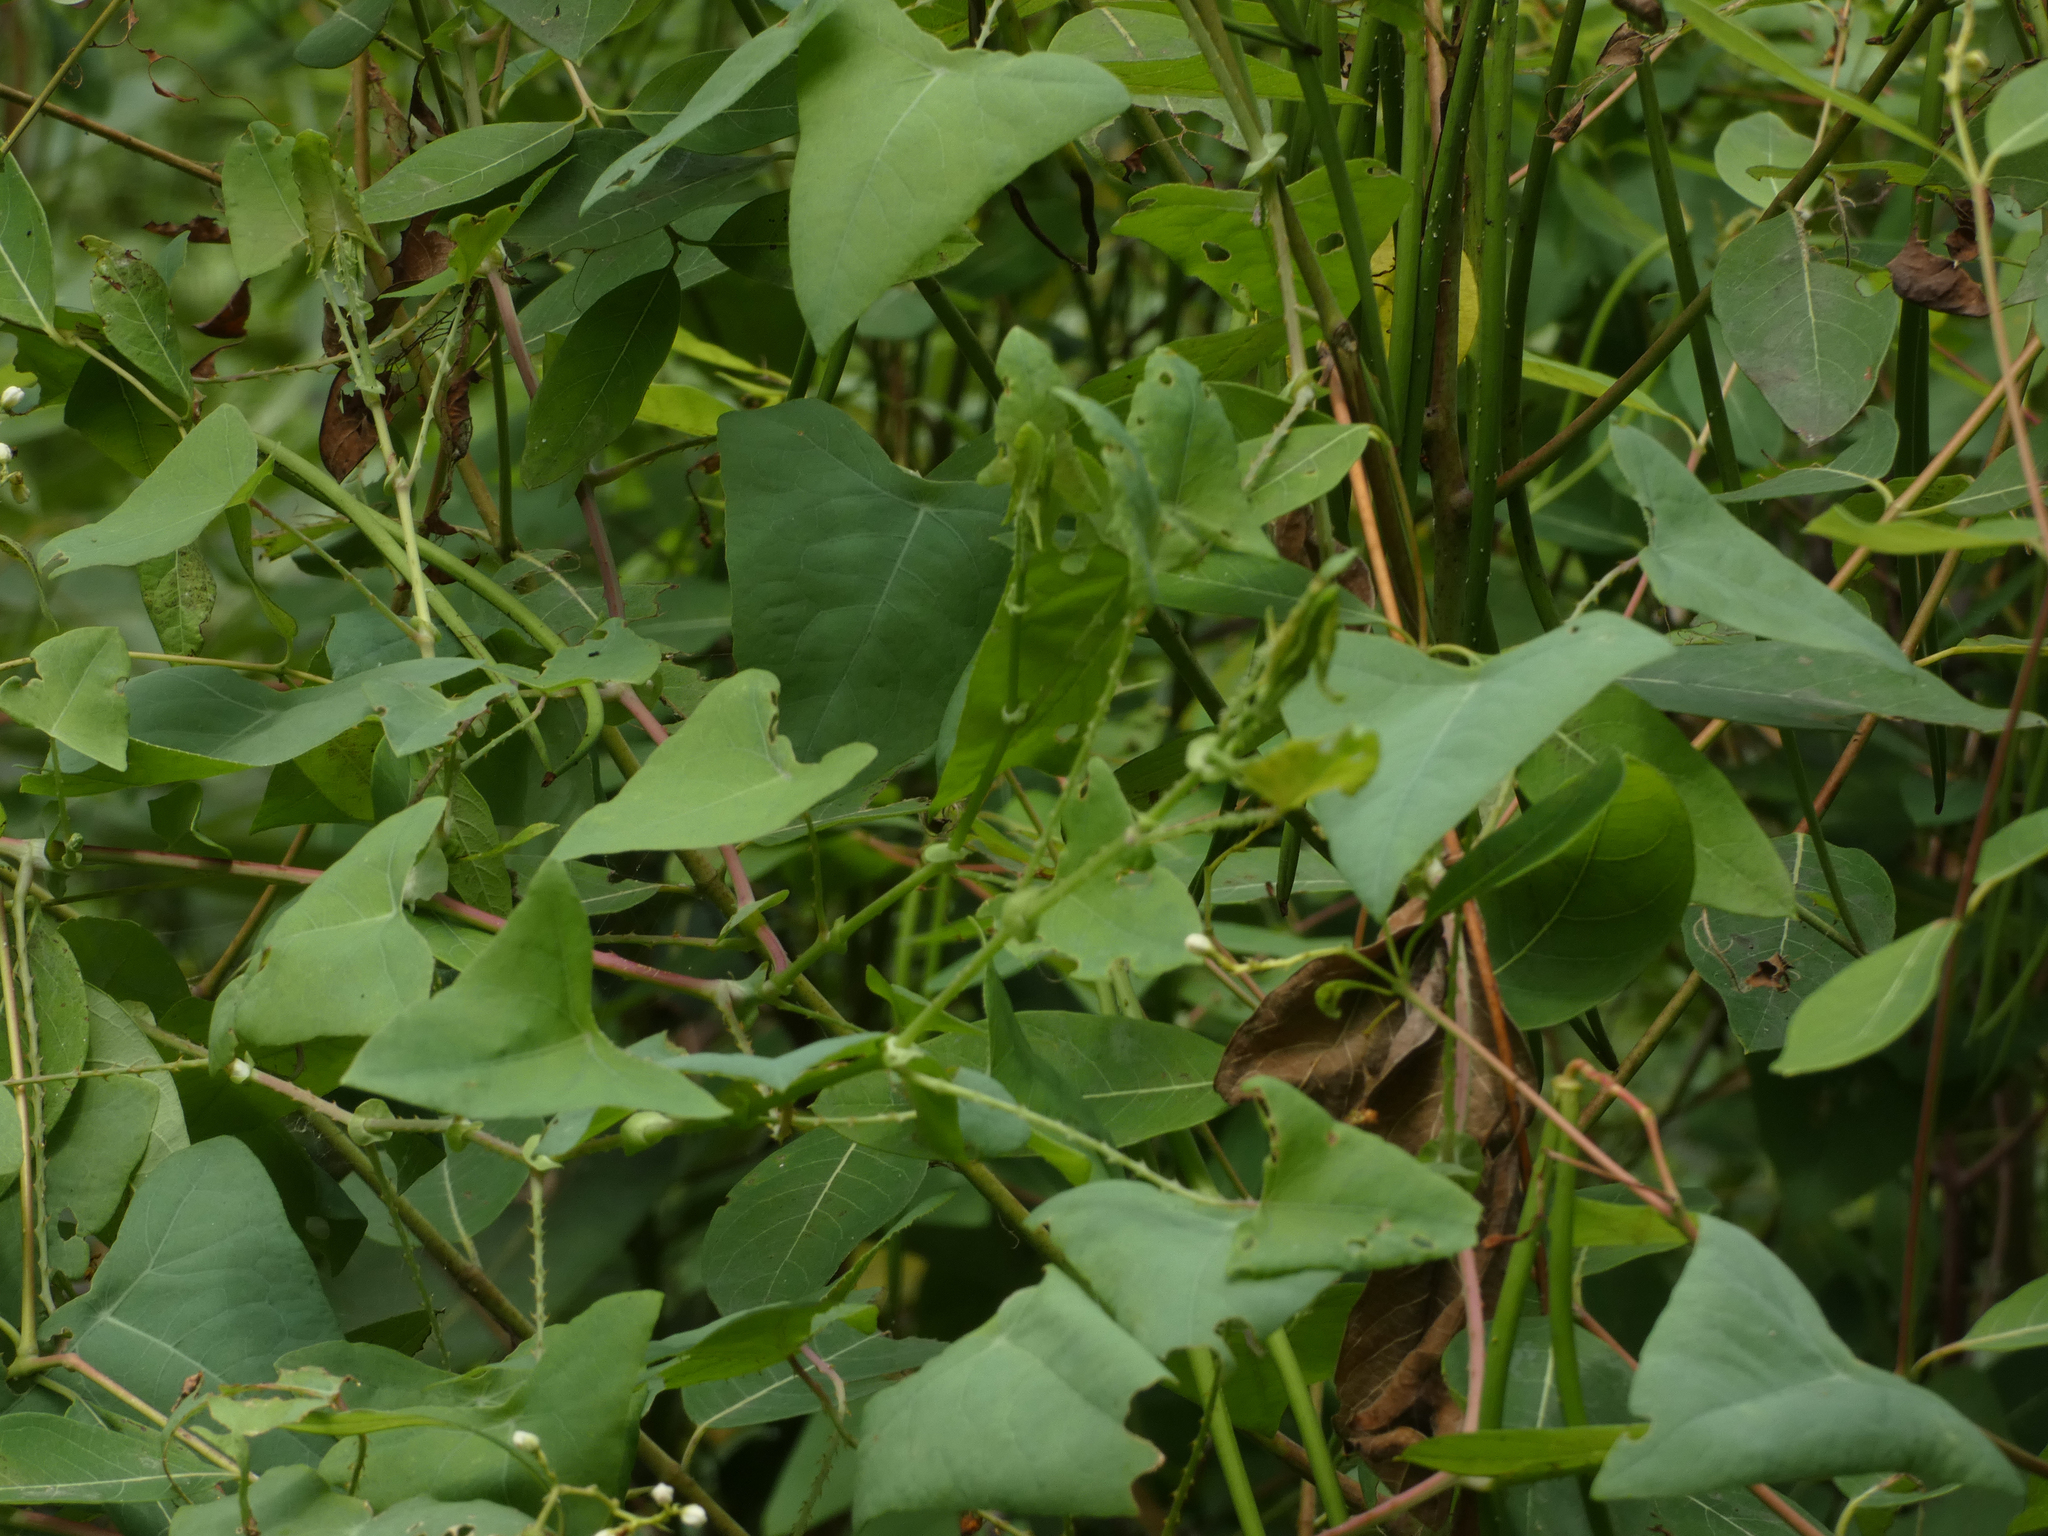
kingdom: Plantae
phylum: Tracheophyta
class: Magnoliopsida
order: Caryophyllales
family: Polygonaceae
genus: Persicaria
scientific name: Persicaria perfoliata
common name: Asiatic tearthumb
